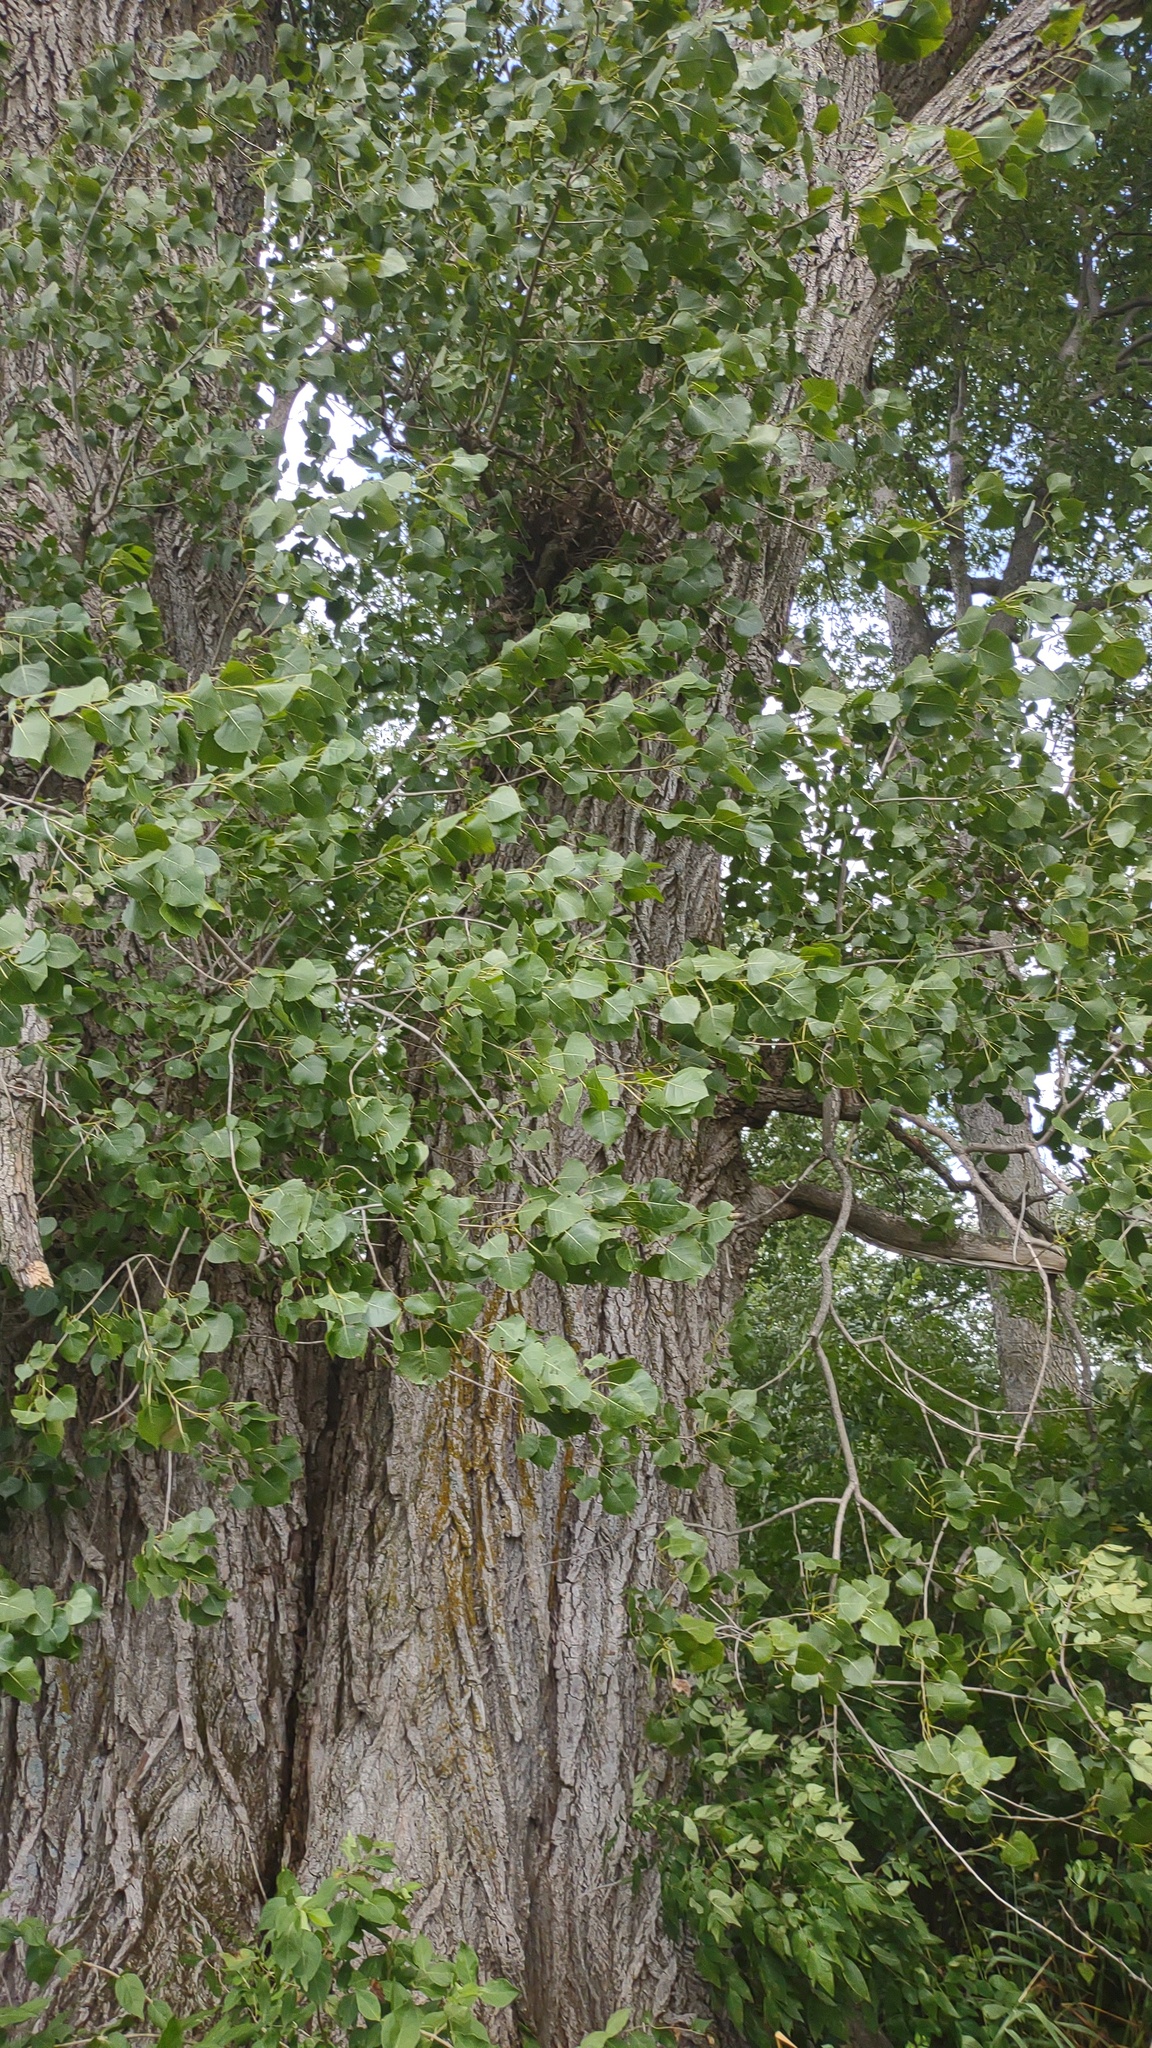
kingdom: Plantae
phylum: Tracheophyta
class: Magnoliopsida
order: Malpighiales
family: Salicaceae
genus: Populus
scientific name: Populus deltoides
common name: Eastern cottonwood
